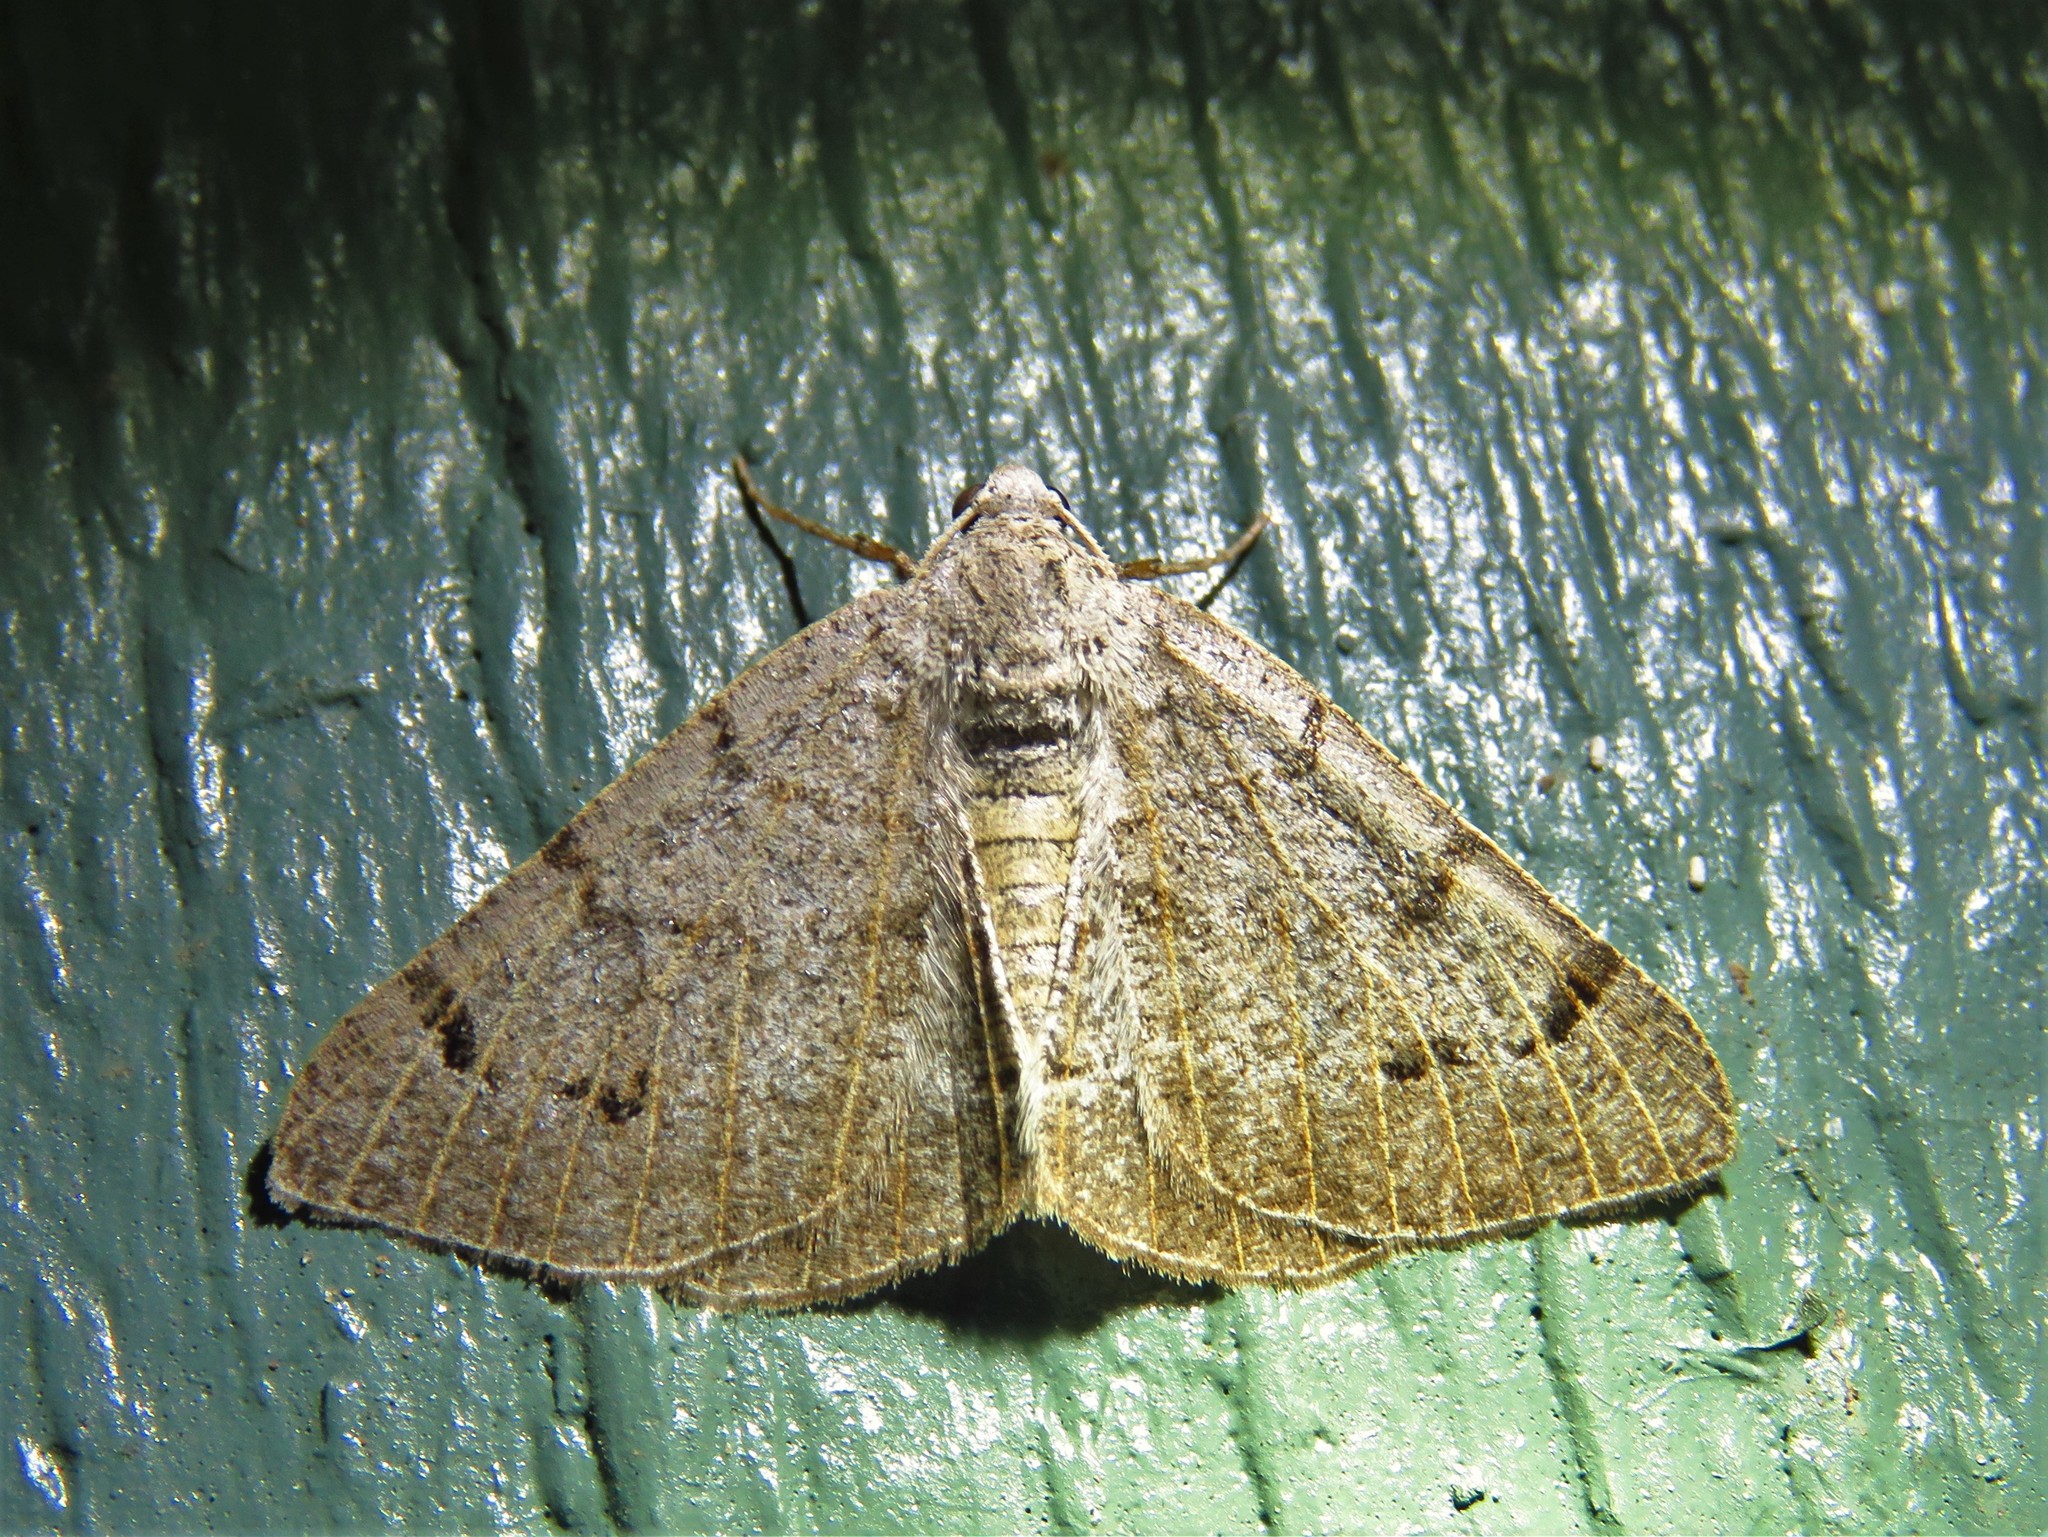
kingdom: Animalia
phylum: Arthropoda
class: Insecta
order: Lepidoptera
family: Geometridae
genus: Isturgia
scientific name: Isturgia dislocaria
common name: Pale-viened enconista
